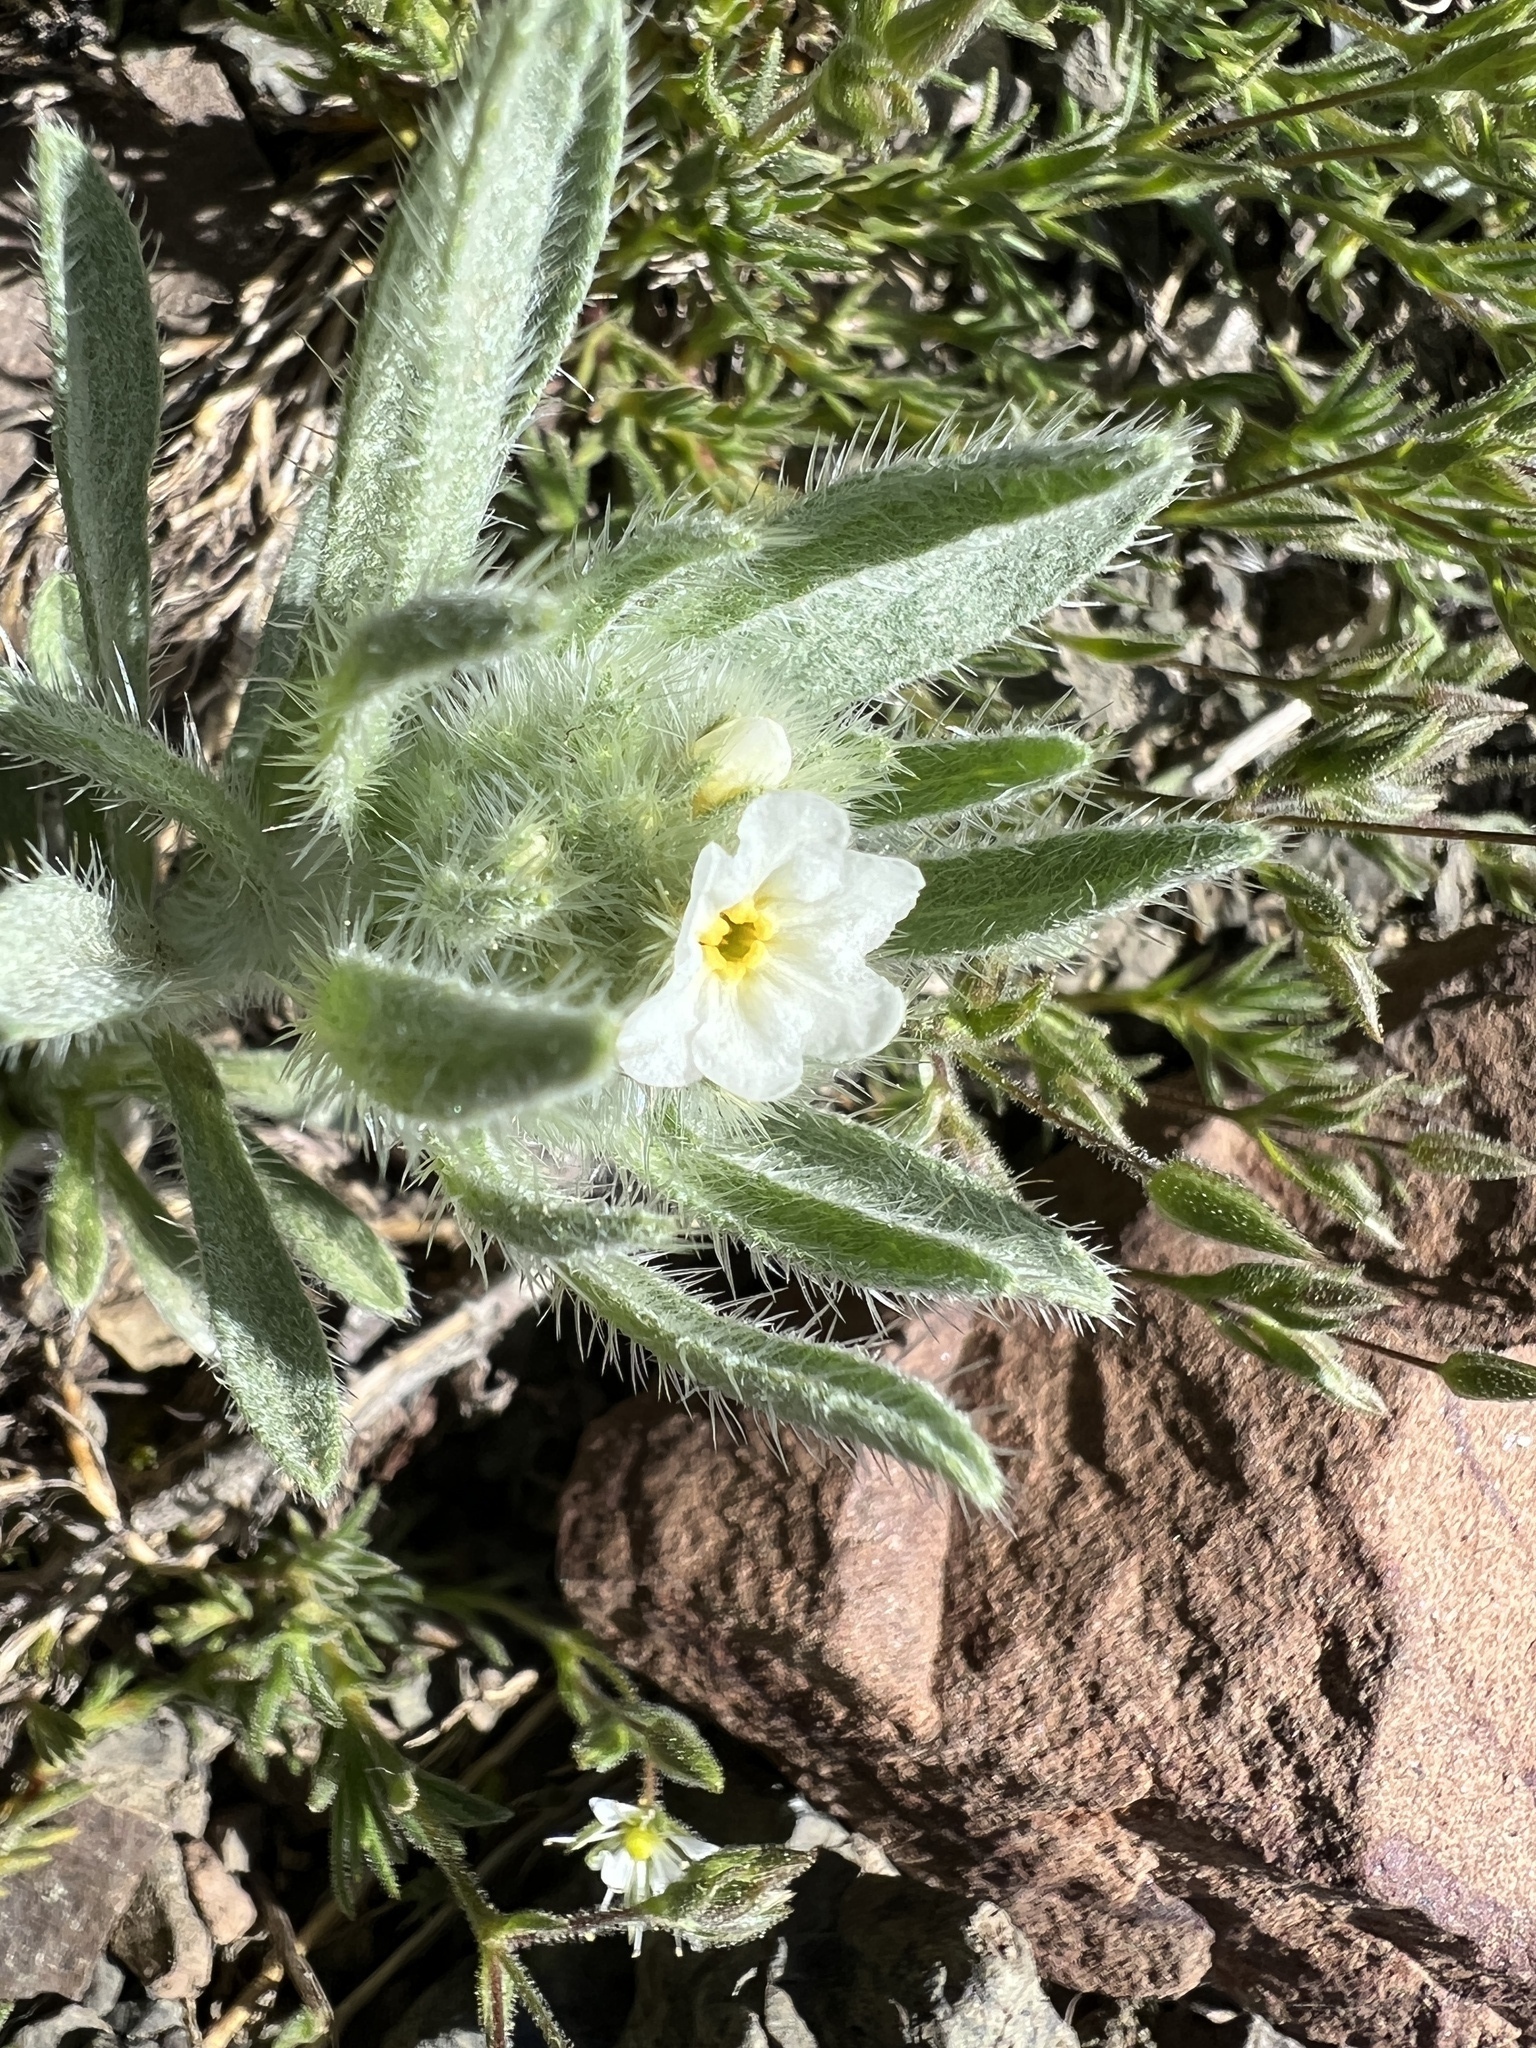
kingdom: Plantae
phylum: Tracheophyta
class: Magnoliopsida
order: Boraginales
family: Boraginaceae
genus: Oreocarya
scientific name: Oreocarya thompsonii
